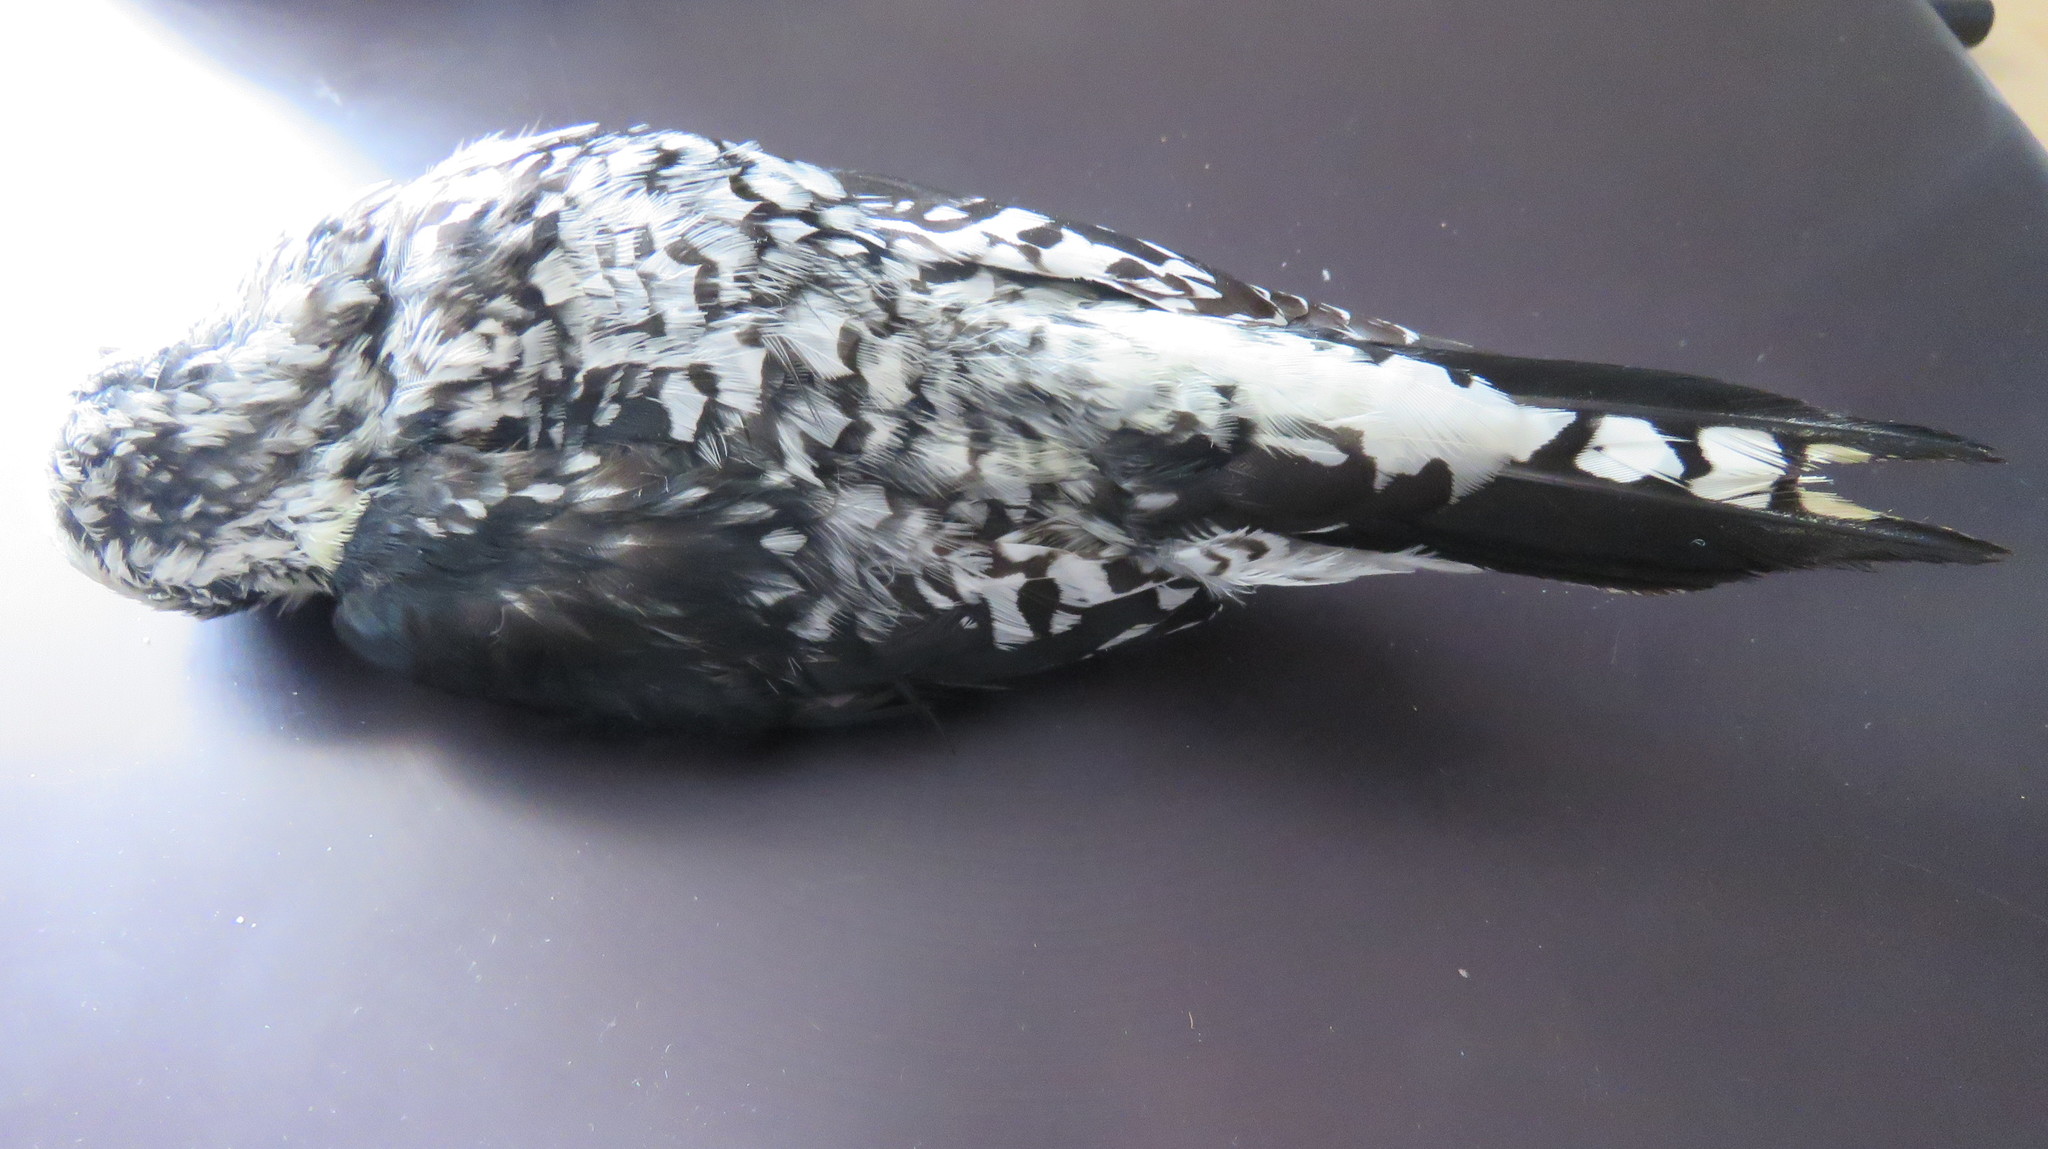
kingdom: Animalia
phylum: Chordata
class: Aves
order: Piciformes
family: Picidae
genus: Sphyrapicus
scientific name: Sphyrapicus varius
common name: Yellow-bellied sapsucker
